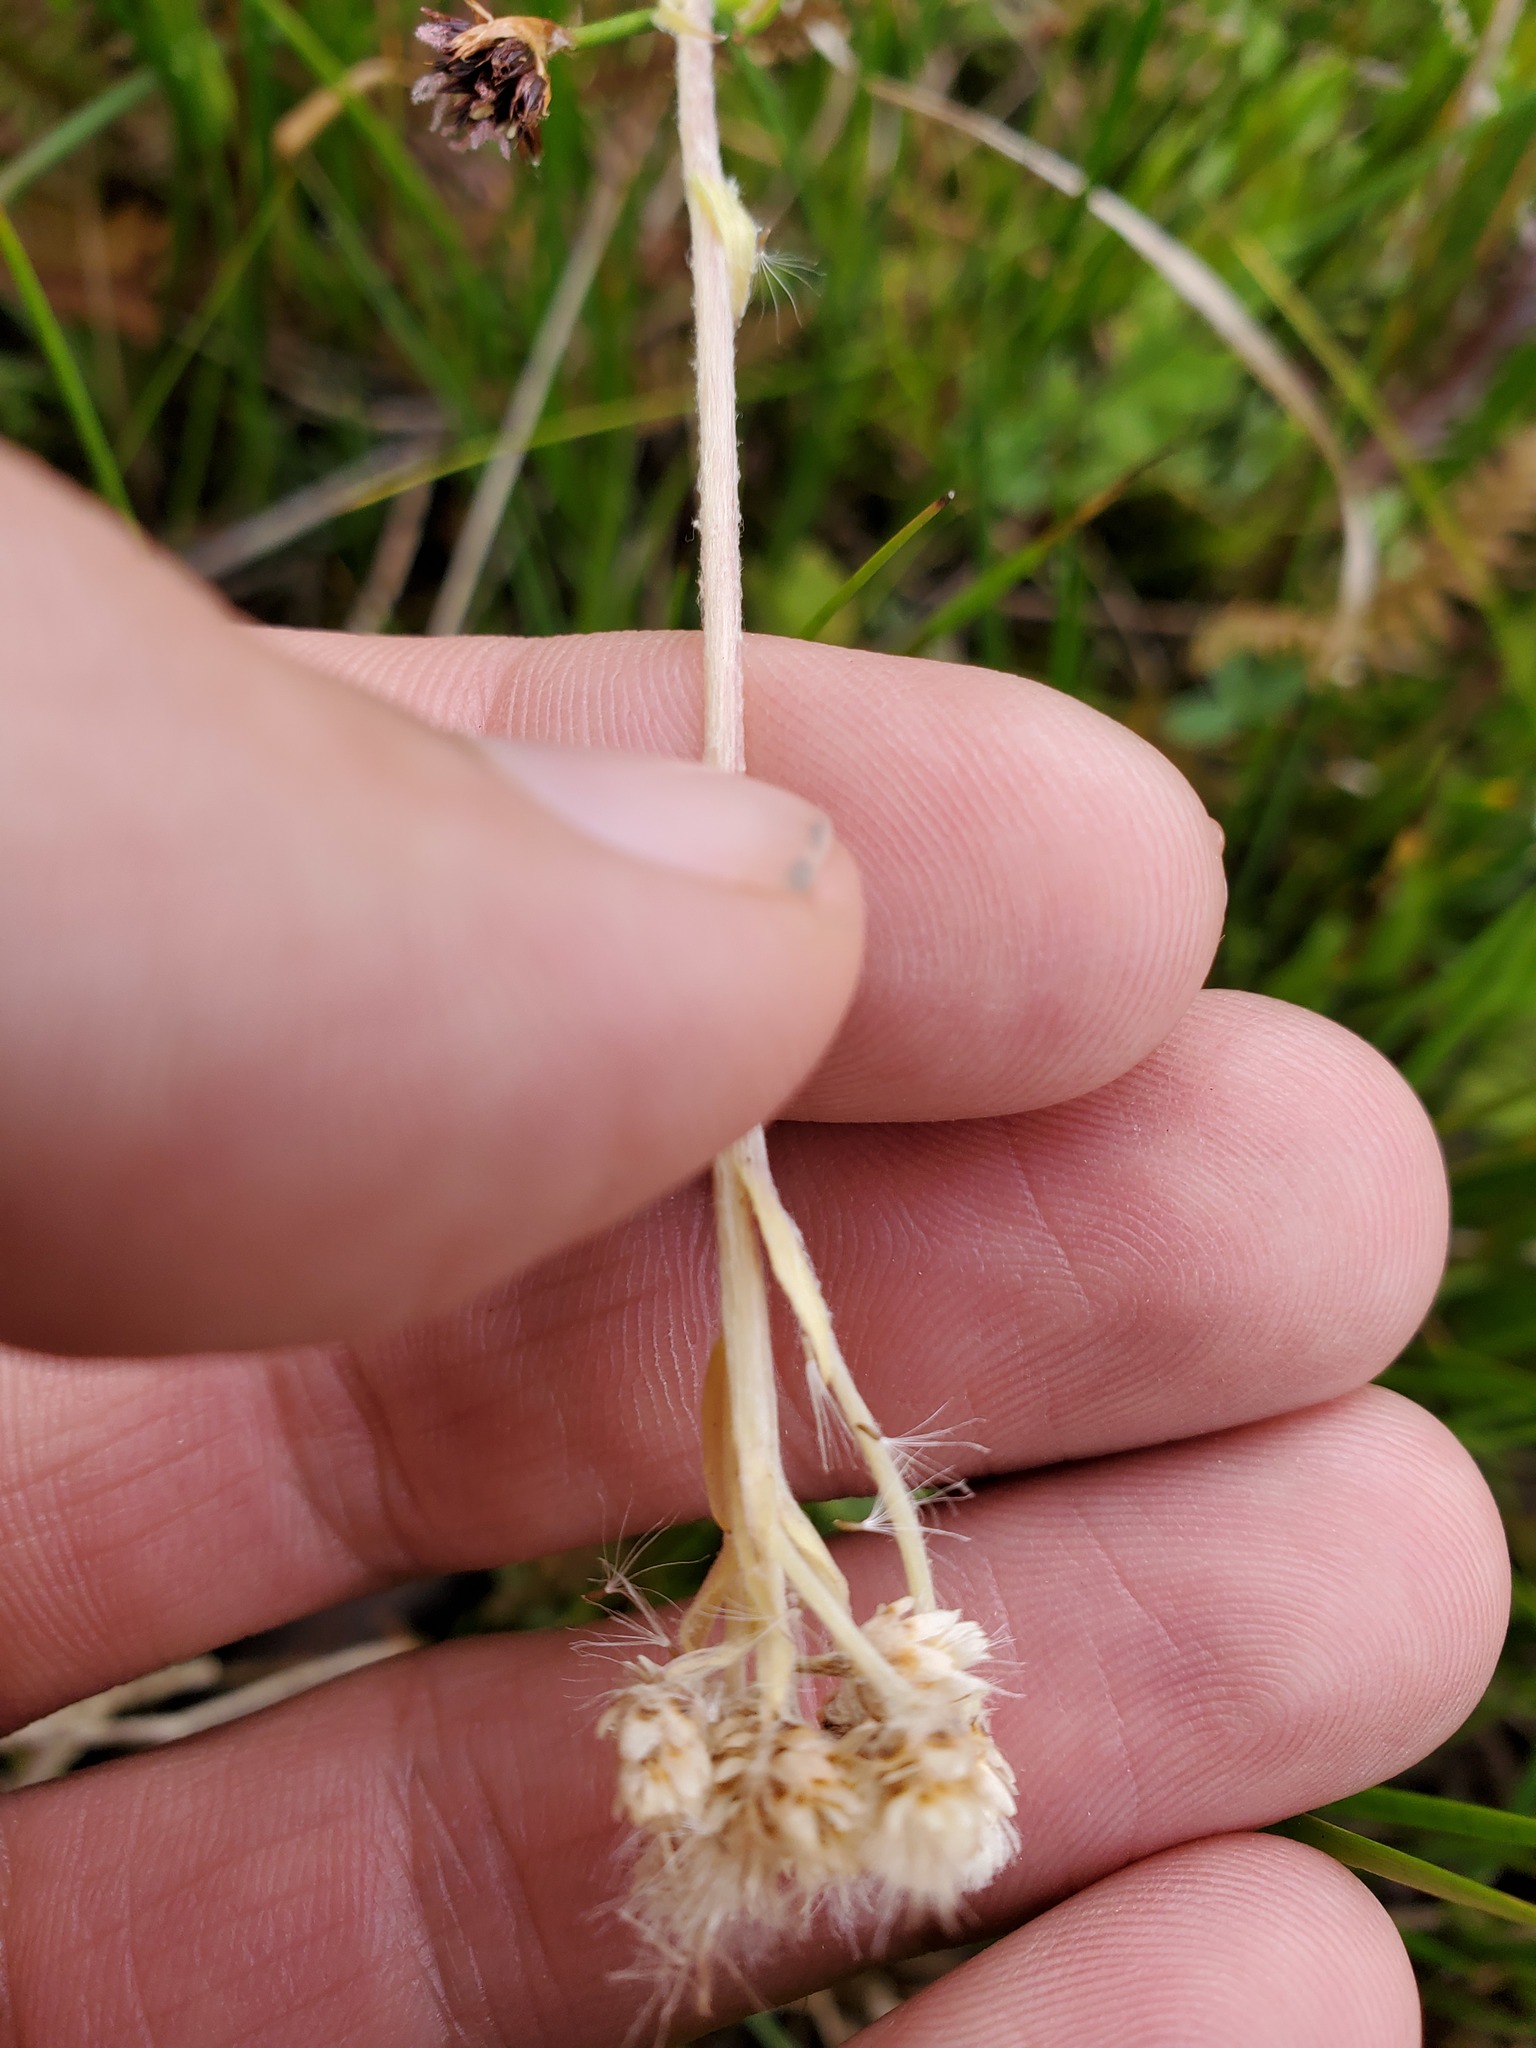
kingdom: Plantae
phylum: Tracheophyta
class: Magnoliopsida
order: Asterales
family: Asteraceae
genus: Antennaria
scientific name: Antennaria corymbosa
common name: Meadow pussytoes
